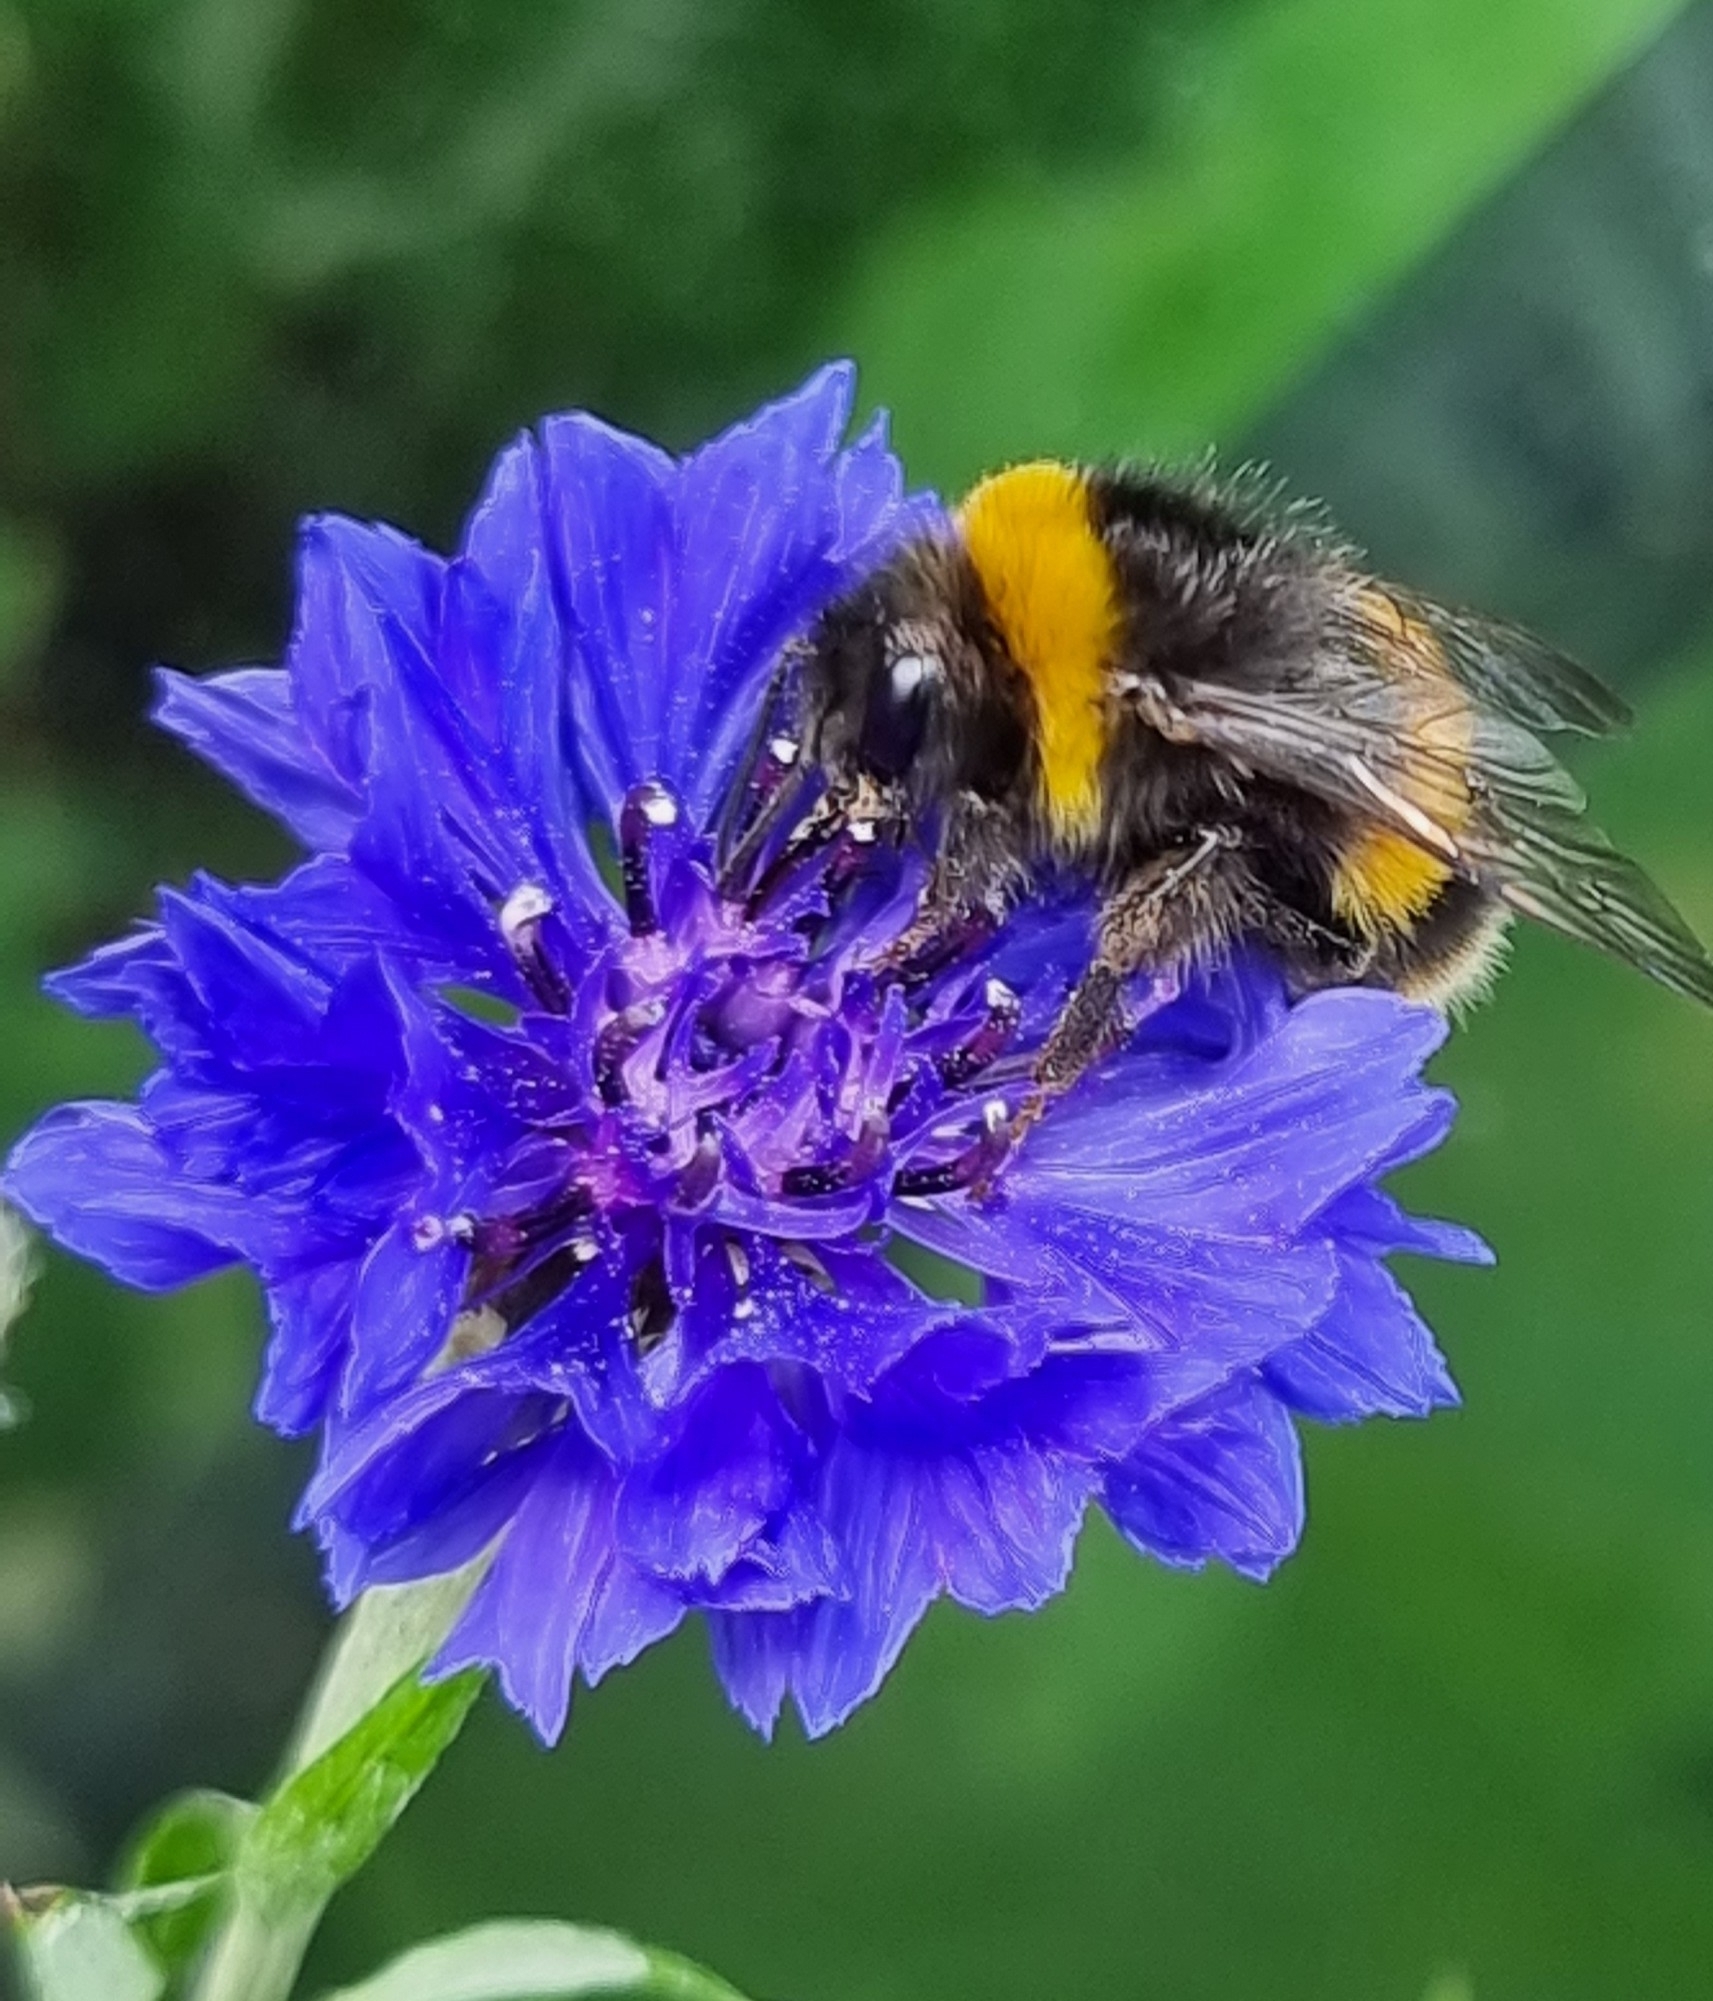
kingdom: Animalia
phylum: Arthropoda
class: Insecta
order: Hymenoptera
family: Apidae
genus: Bombus
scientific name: Bombus terrestris
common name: Buff-tailed bumblebee
